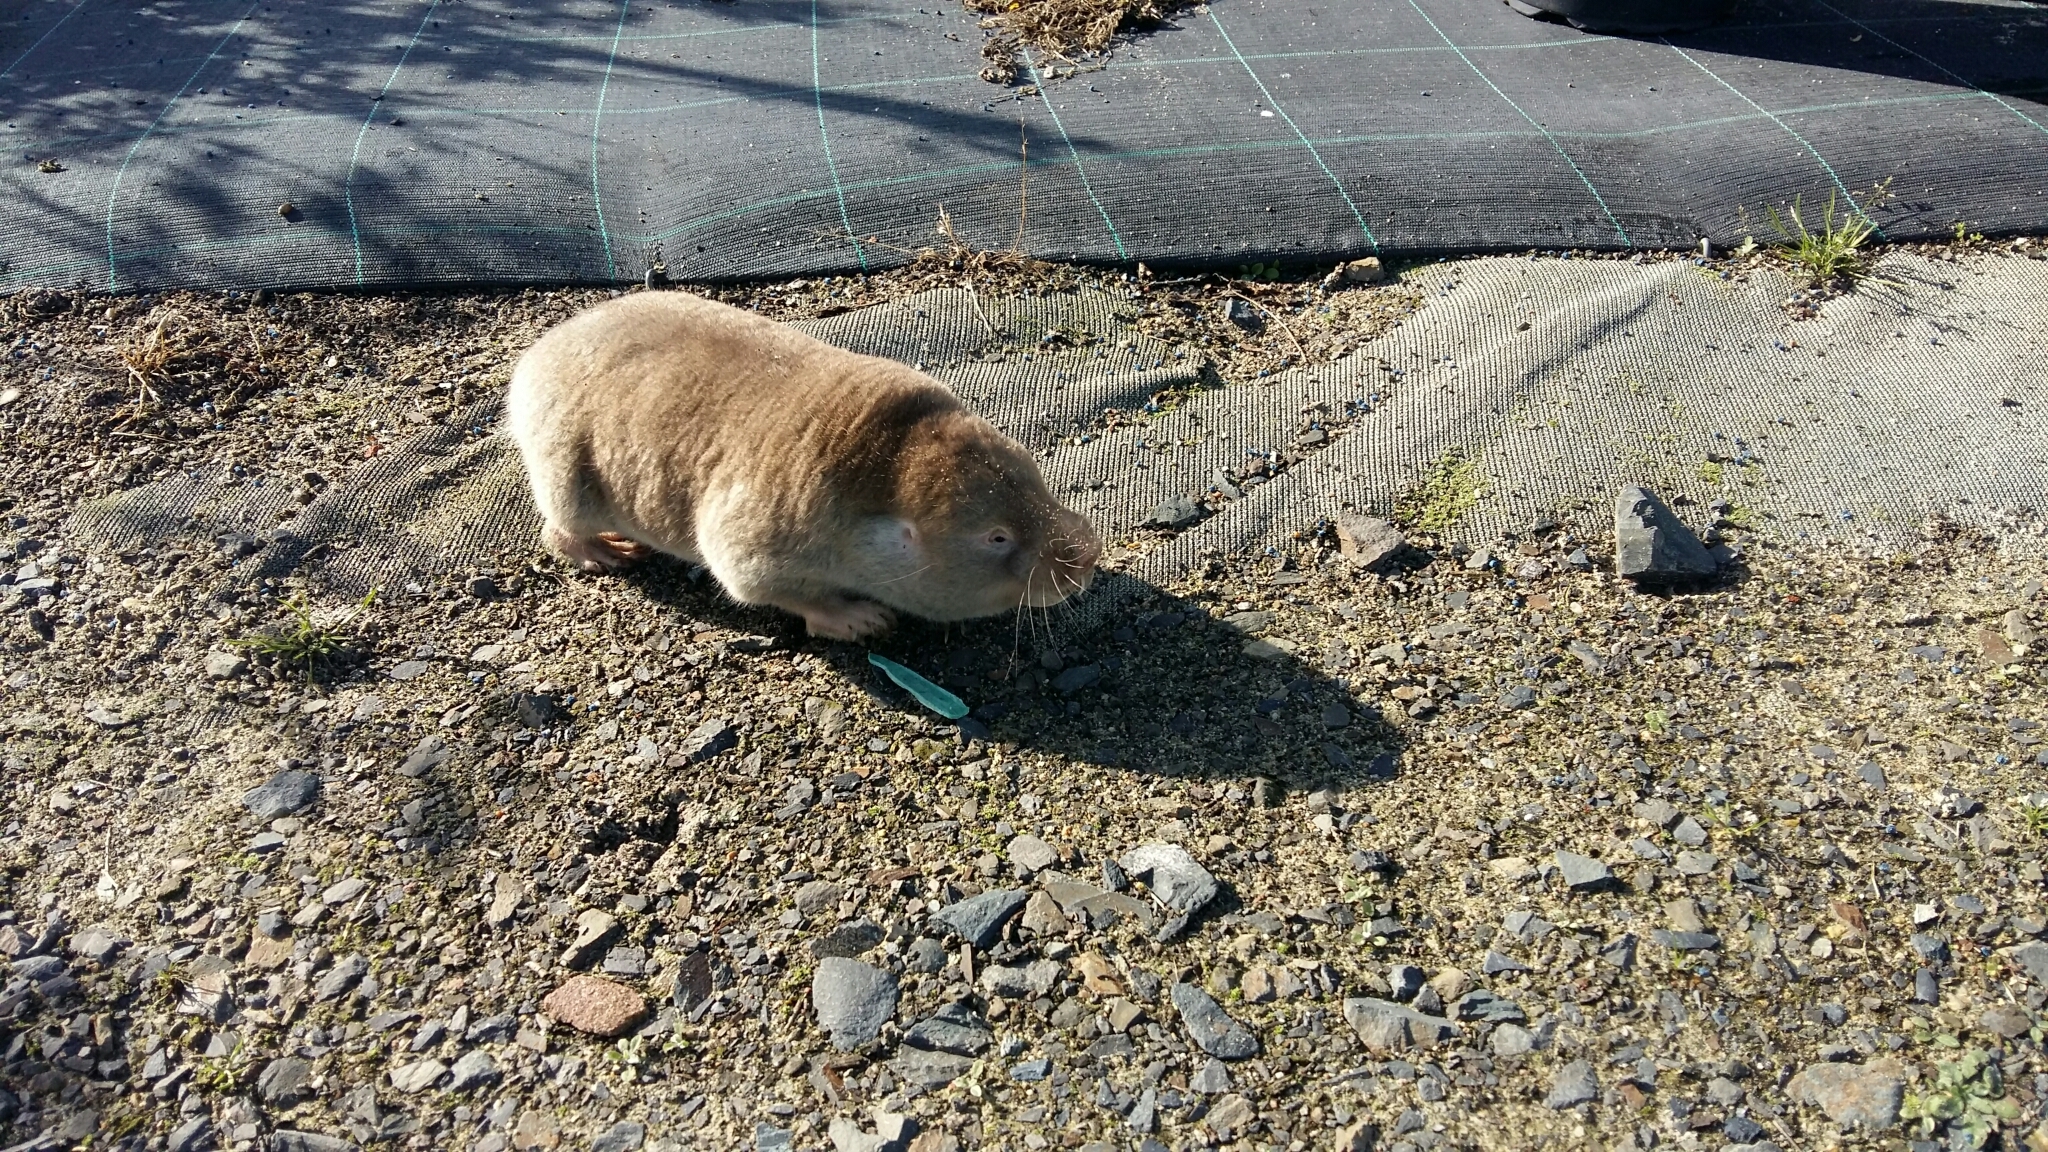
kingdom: Animalia
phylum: Chordata
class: Mammalia
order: Rodentia
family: Bathyergidae
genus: Bathyergus
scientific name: Bathyergus suillus
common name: Cape dune mole rat
